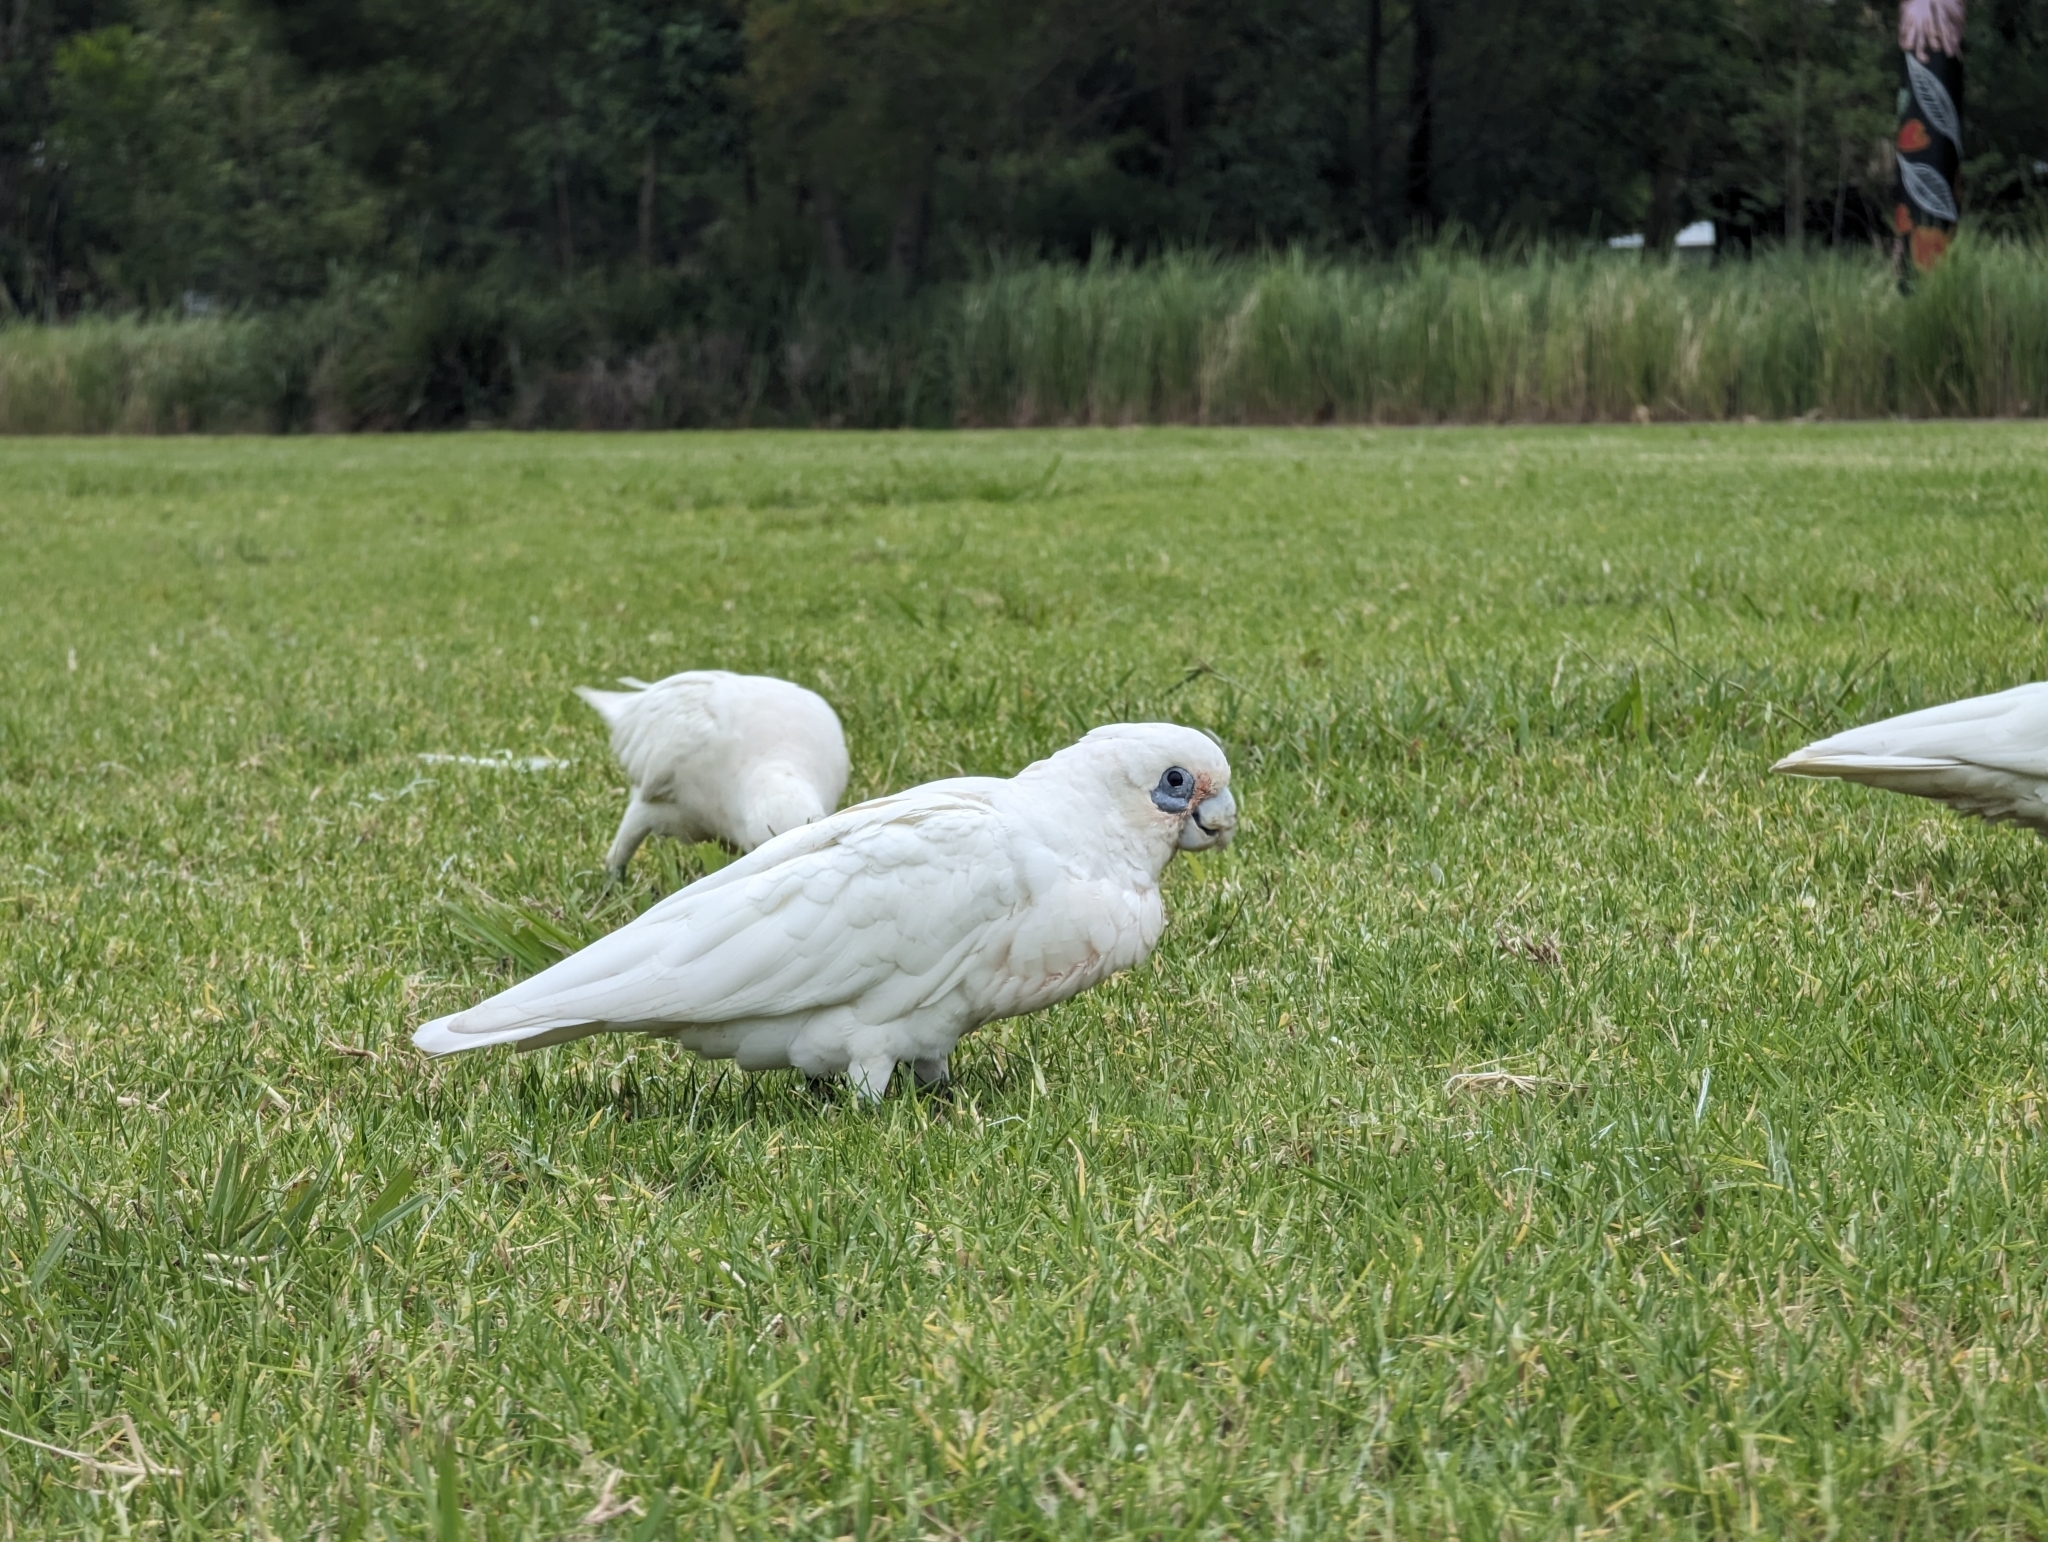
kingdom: Animalia
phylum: Chordata
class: Aves
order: Psittaciformes
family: Psittacidae
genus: Cacatua
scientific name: Cacatua sanguinea
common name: Little corella
